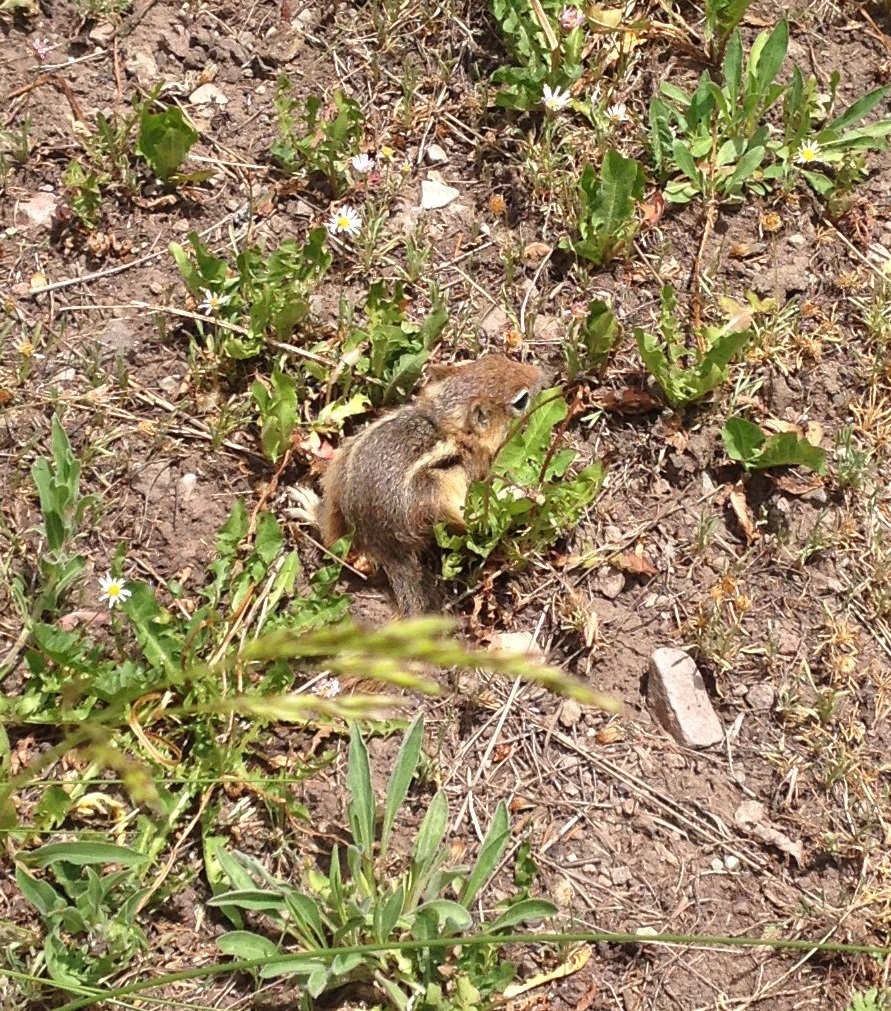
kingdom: Animalia
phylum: Chordata
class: Mammalia
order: Rodentia
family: Sciuridae
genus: Callospermophilus
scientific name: Callospermophilus lateralis
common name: Golden-mantled ground squirrel
